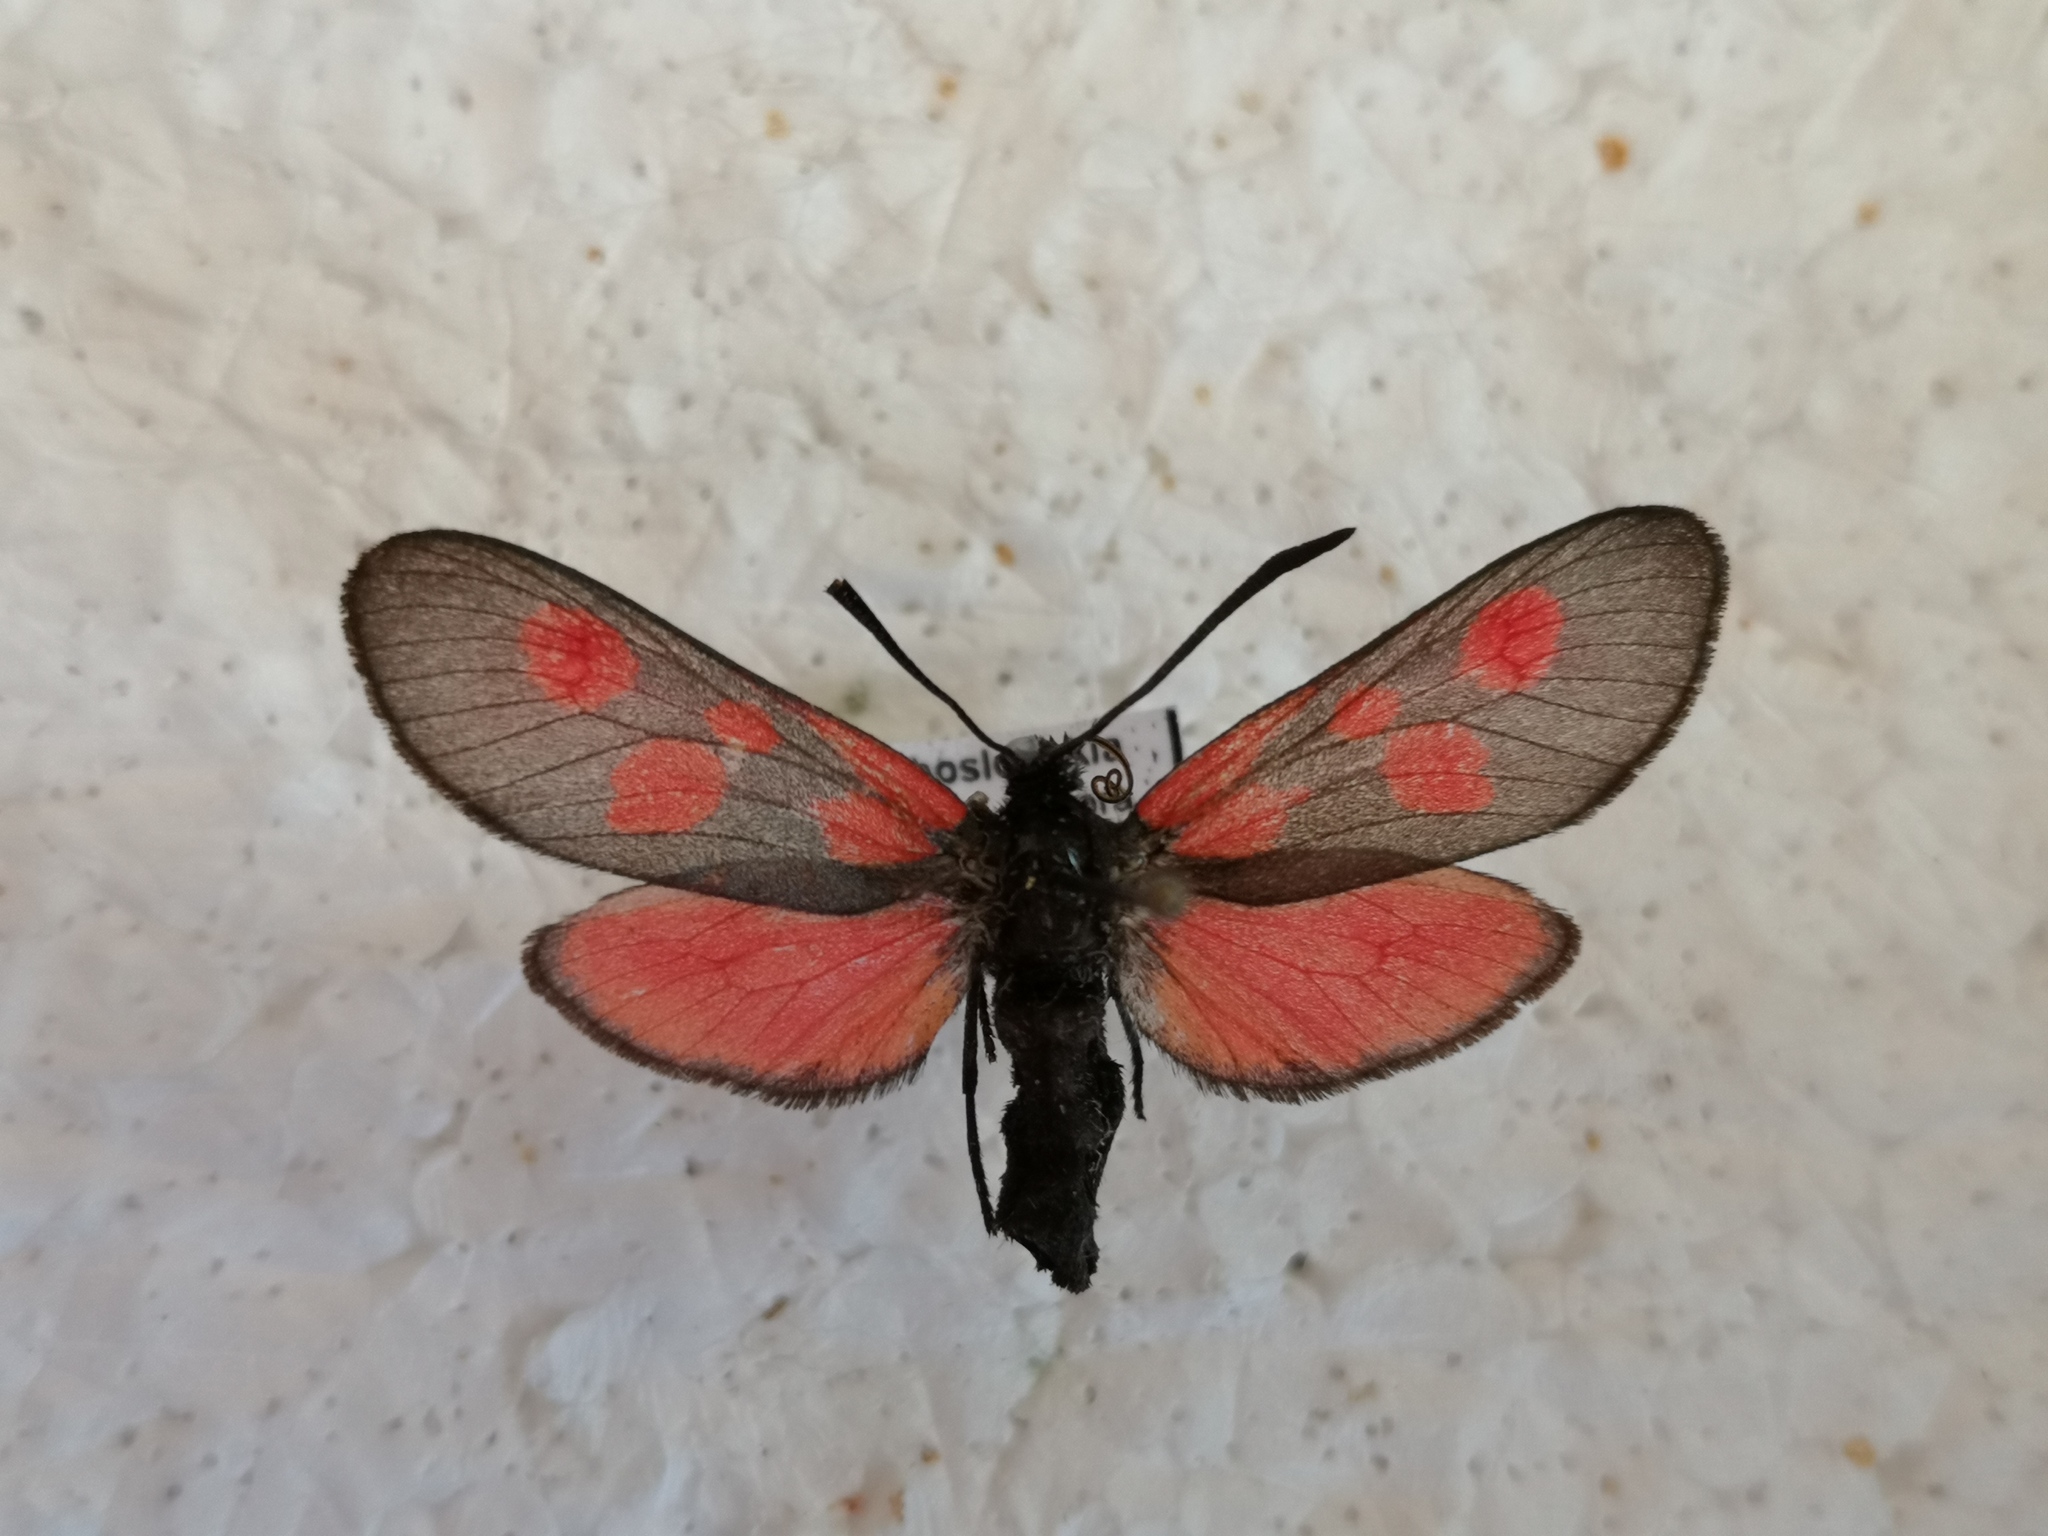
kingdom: Animalia
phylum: Arthropoda
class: Insecta
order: Lepidoptera
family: Zygaenidae
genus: Zygaena
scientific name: Zygaena viciae
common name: New forest burnet
